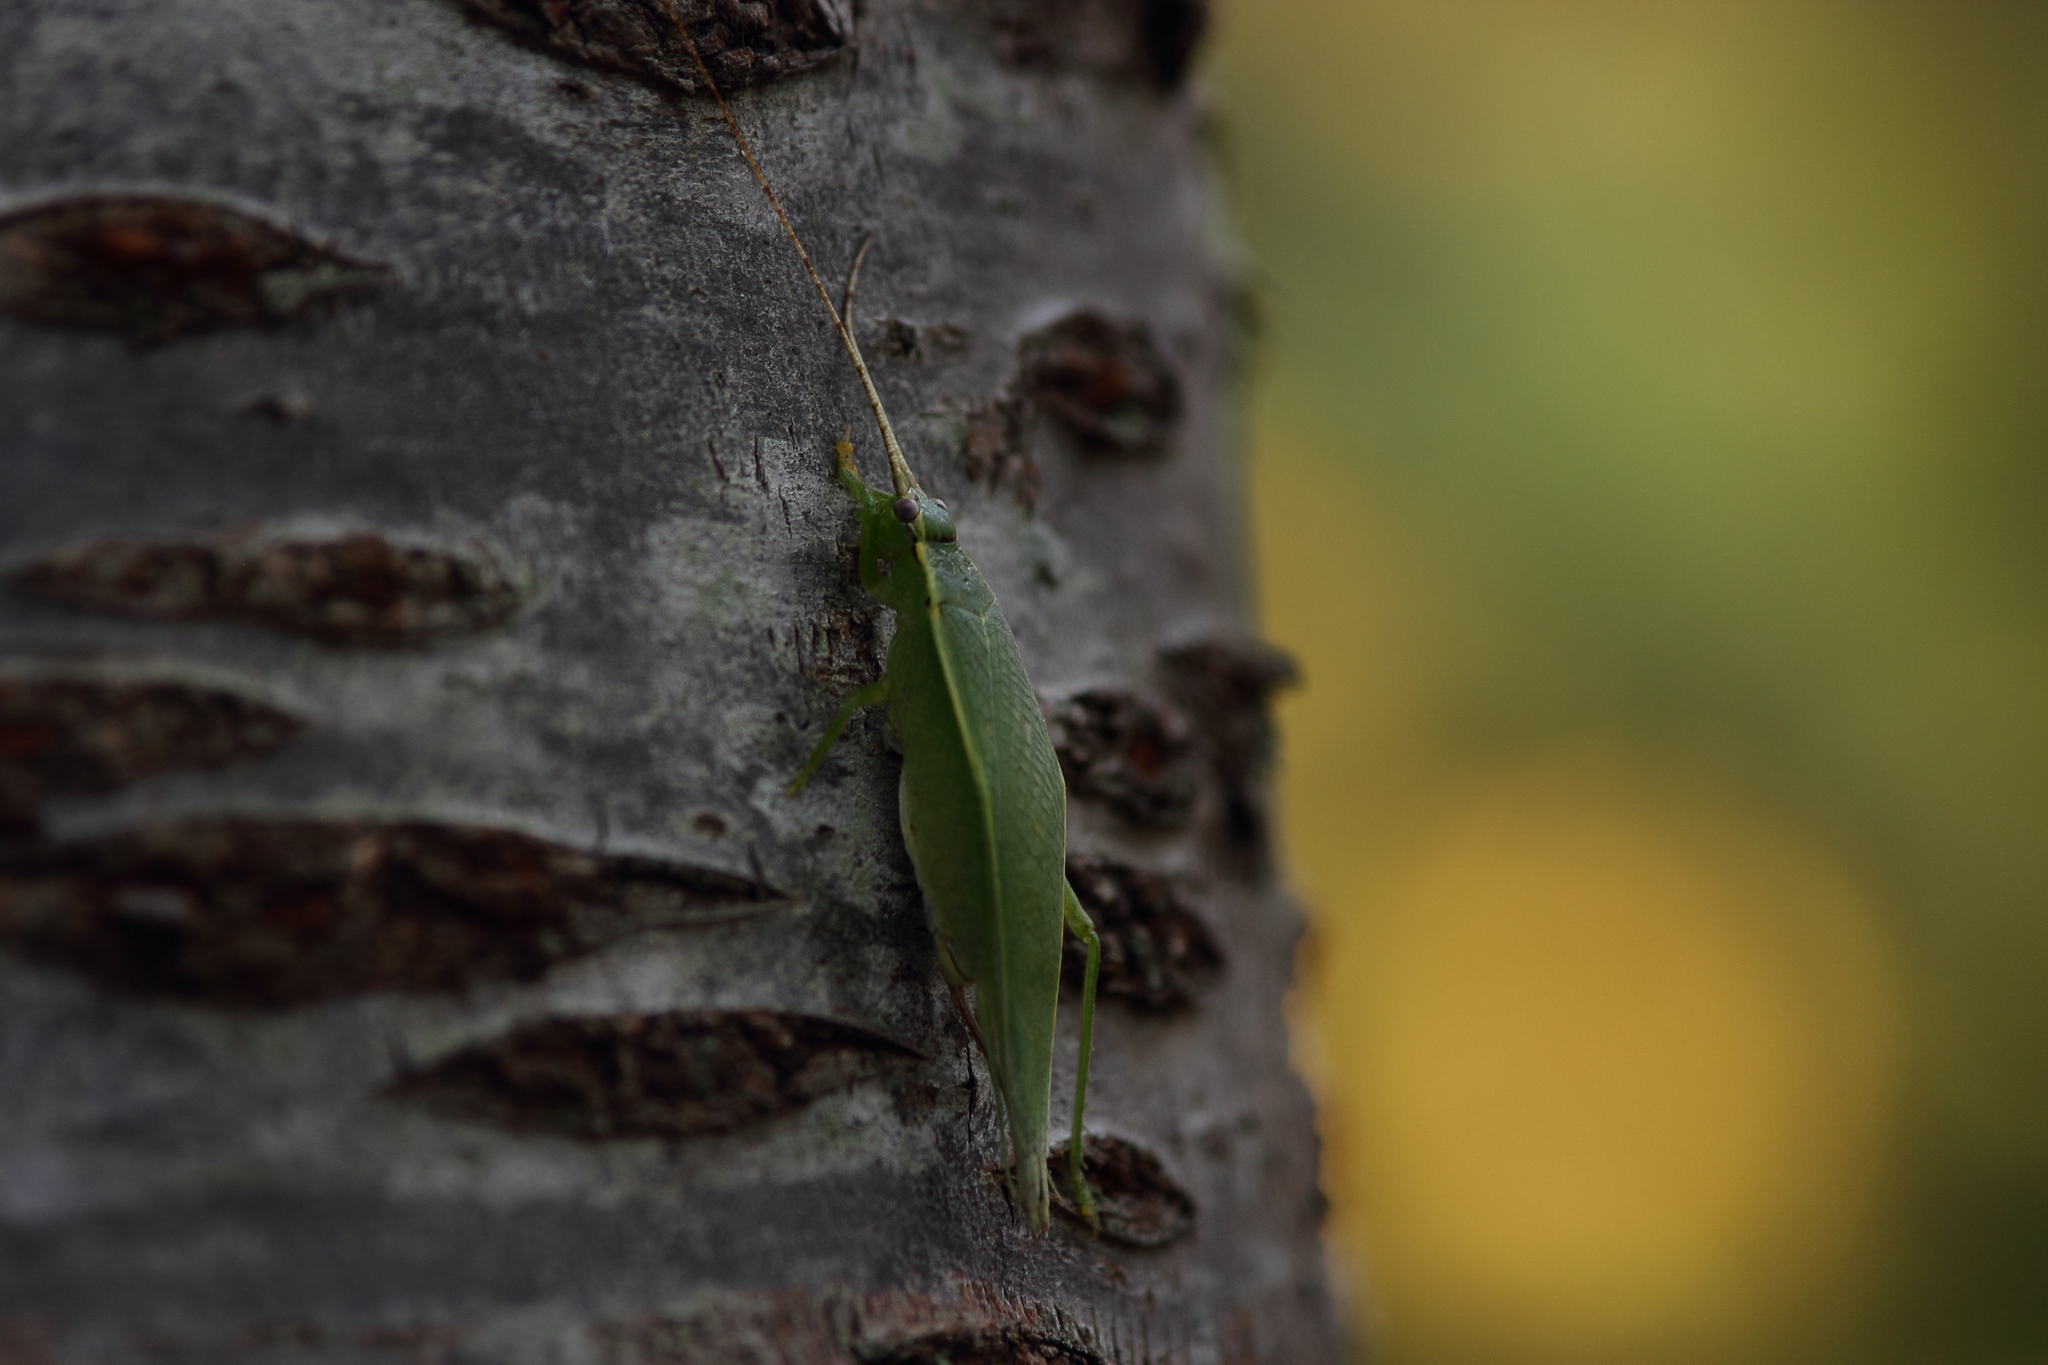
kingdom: Animalia
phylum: Arthropoda
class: Insecta
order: Orthoptera
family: Gryllidae
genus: Truljalia
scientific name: Truljalia hibinonis
